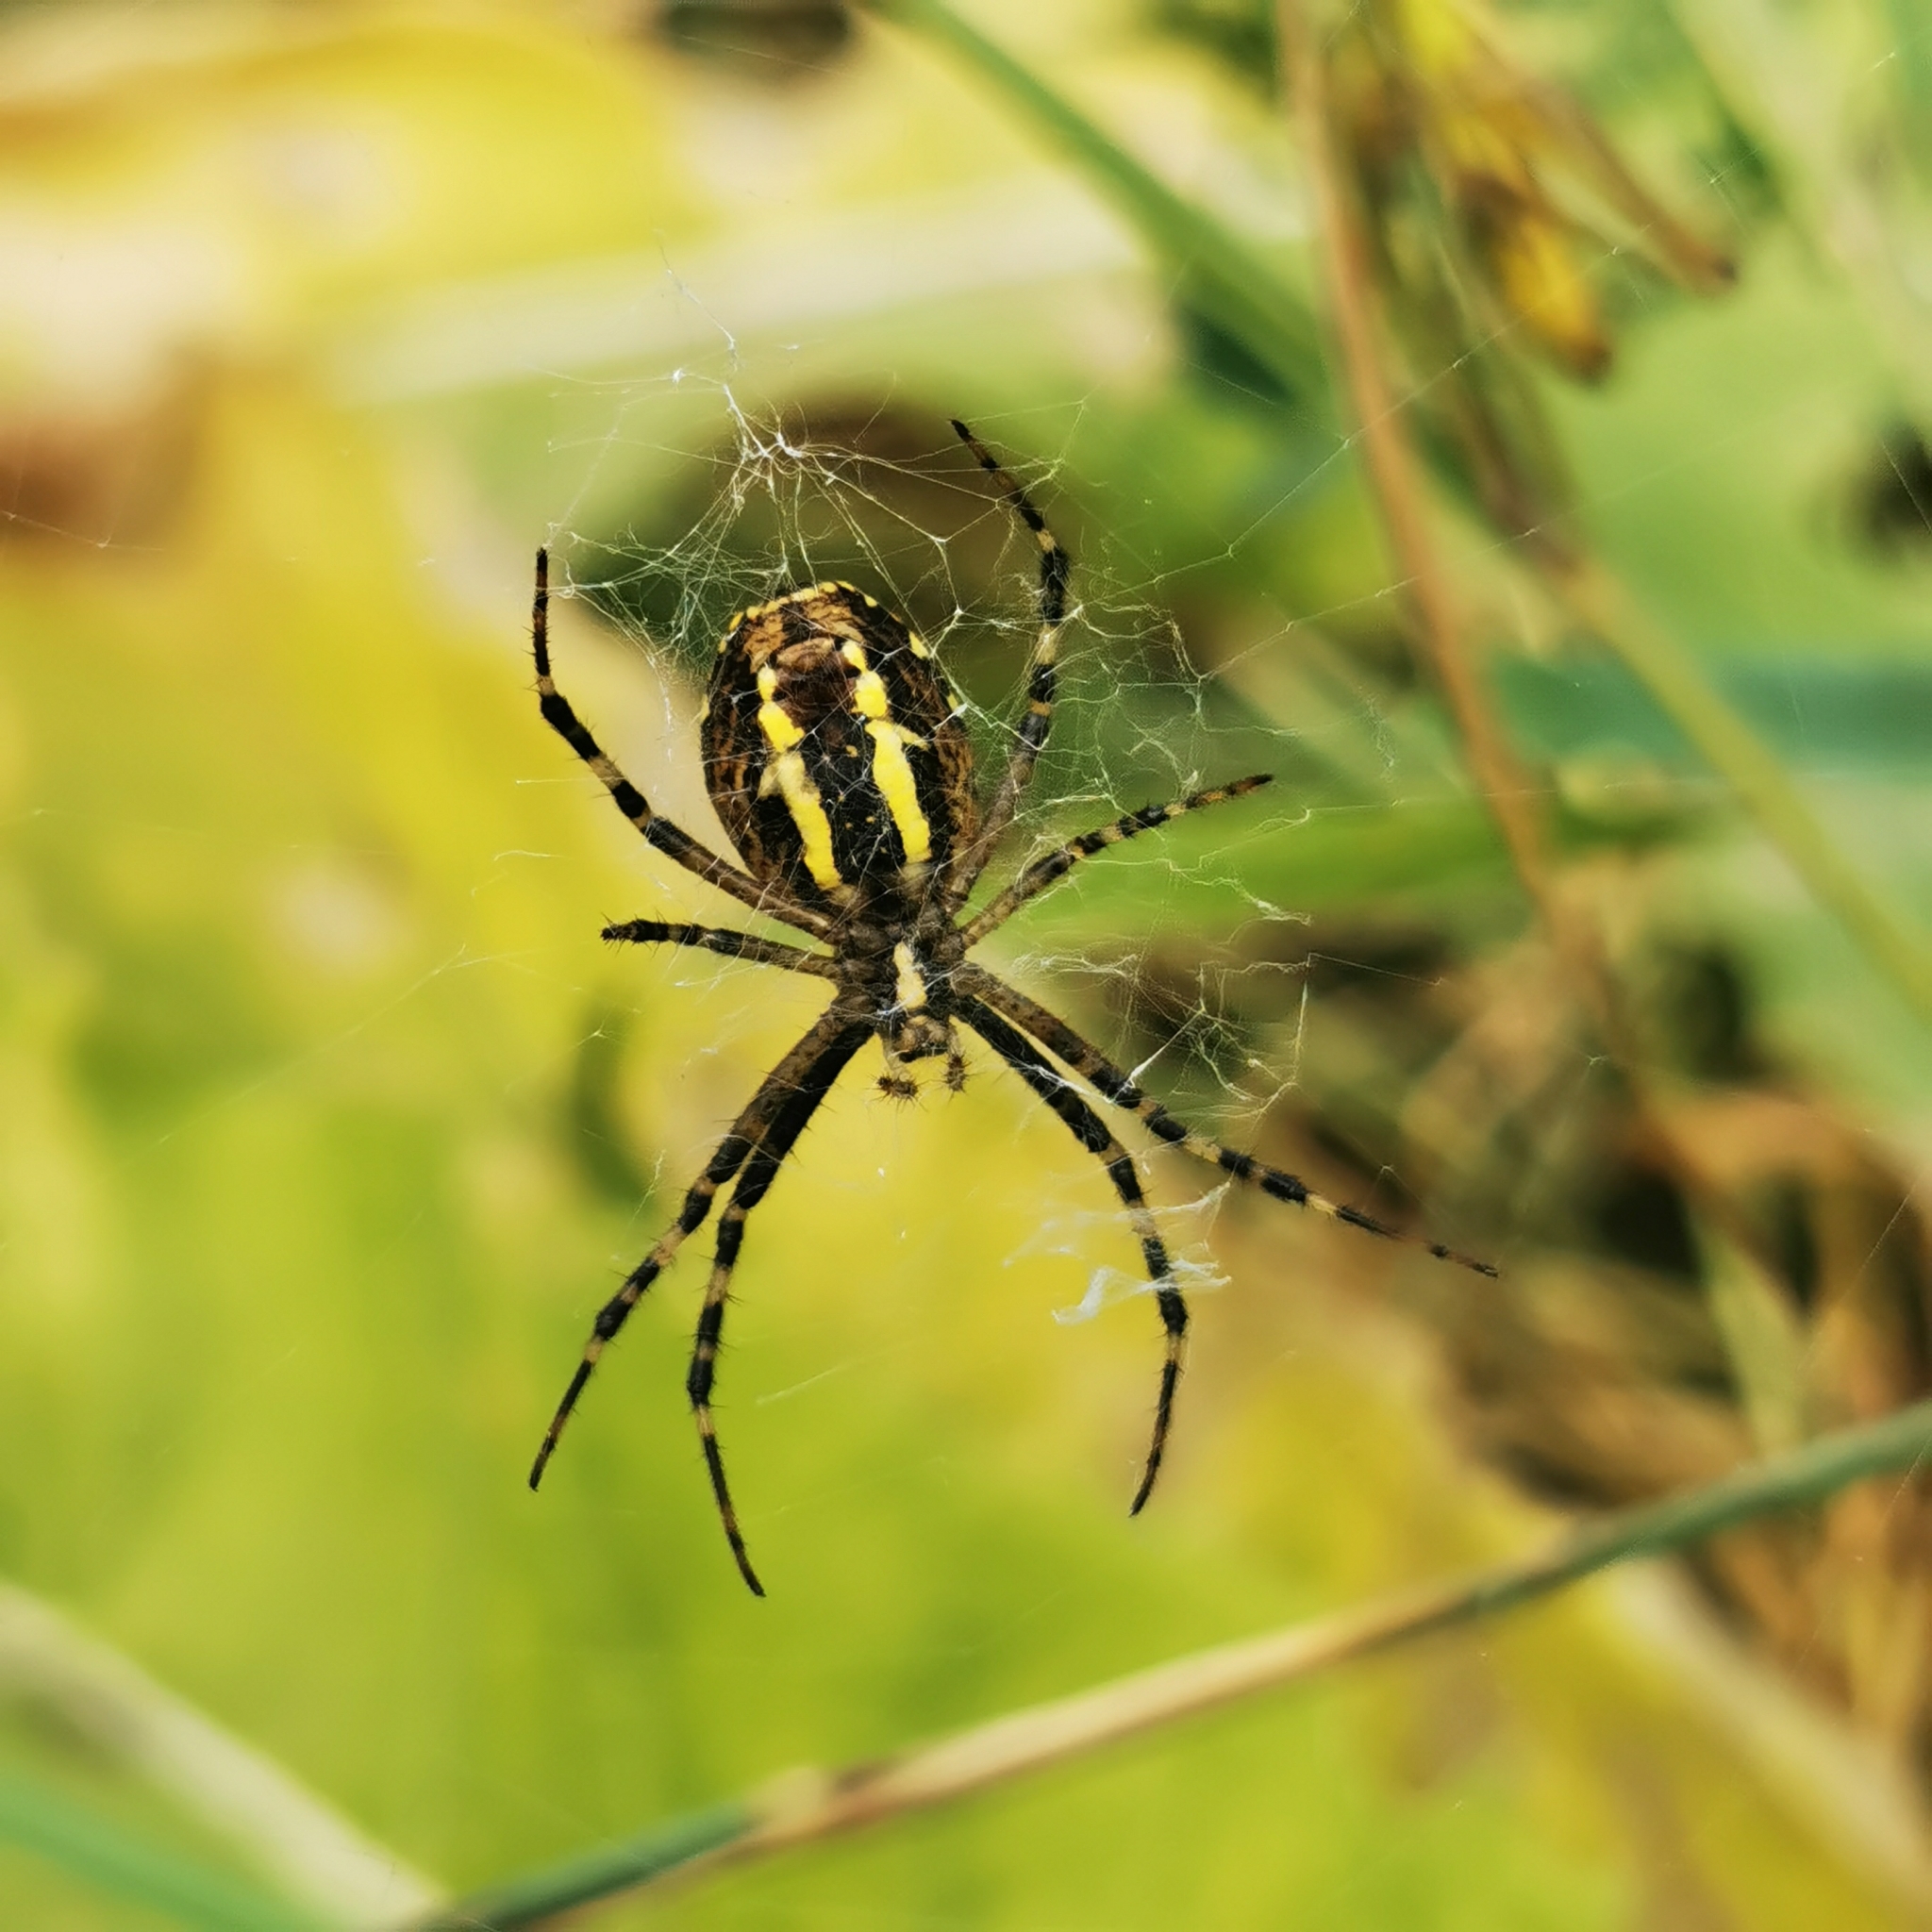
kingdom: Animalia
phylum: Arthropoda
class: Arachnida
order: Araneae
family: Araneidae
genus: Argiope
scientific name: Argiope bruennichi
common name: Wasp spider
